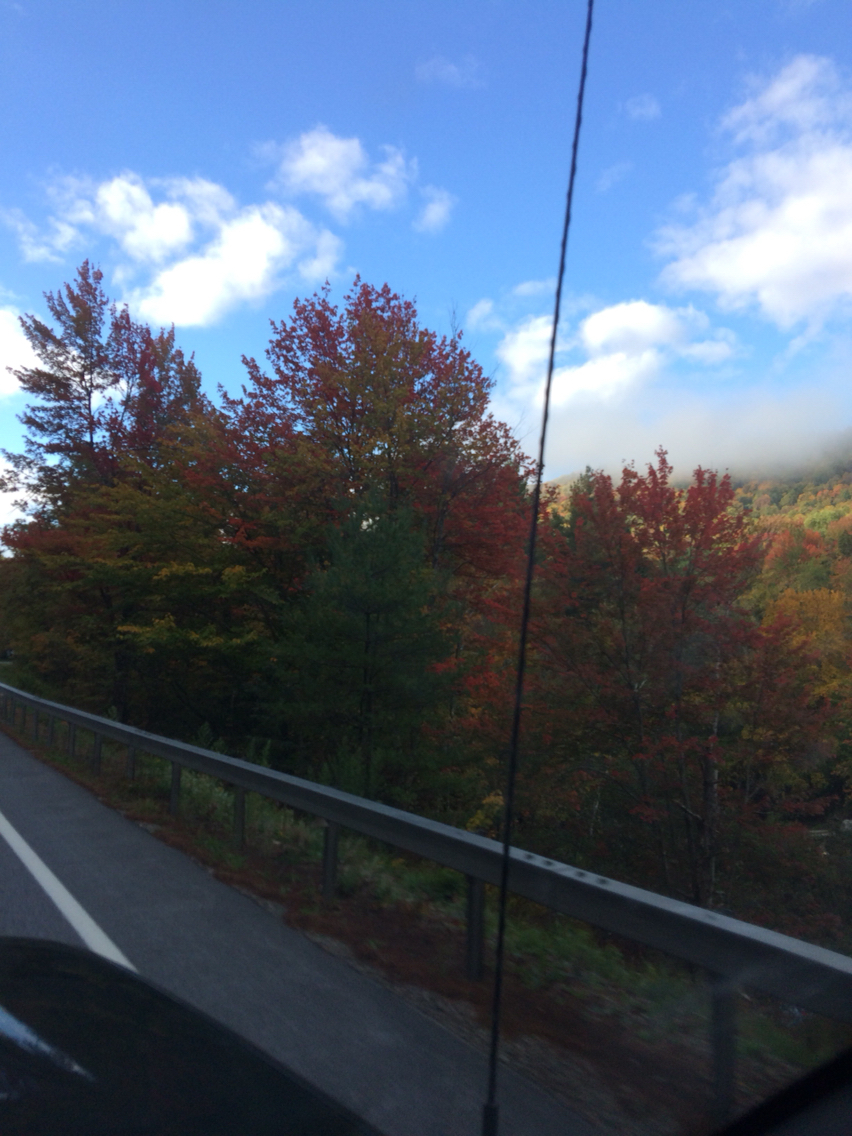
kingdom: Plantae
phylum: Tracheophyta
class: Magnoliopsida
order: Sapindales
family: Sapindaceae
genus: Acer
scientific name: Acer rubrum
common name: Red maple
